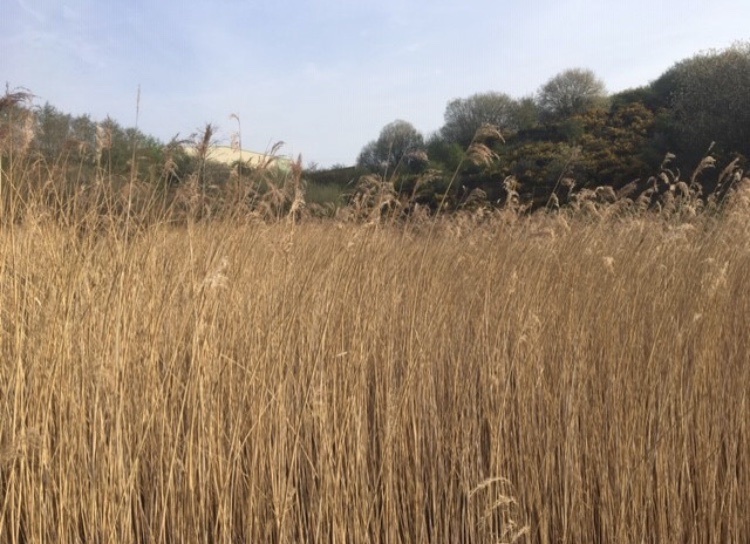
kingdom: Plantae
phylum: Tracheophyta
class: Liliopsida
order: Poales
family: Poaceae
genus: Phragmites
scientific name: Phragmites australis
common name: Common reed
